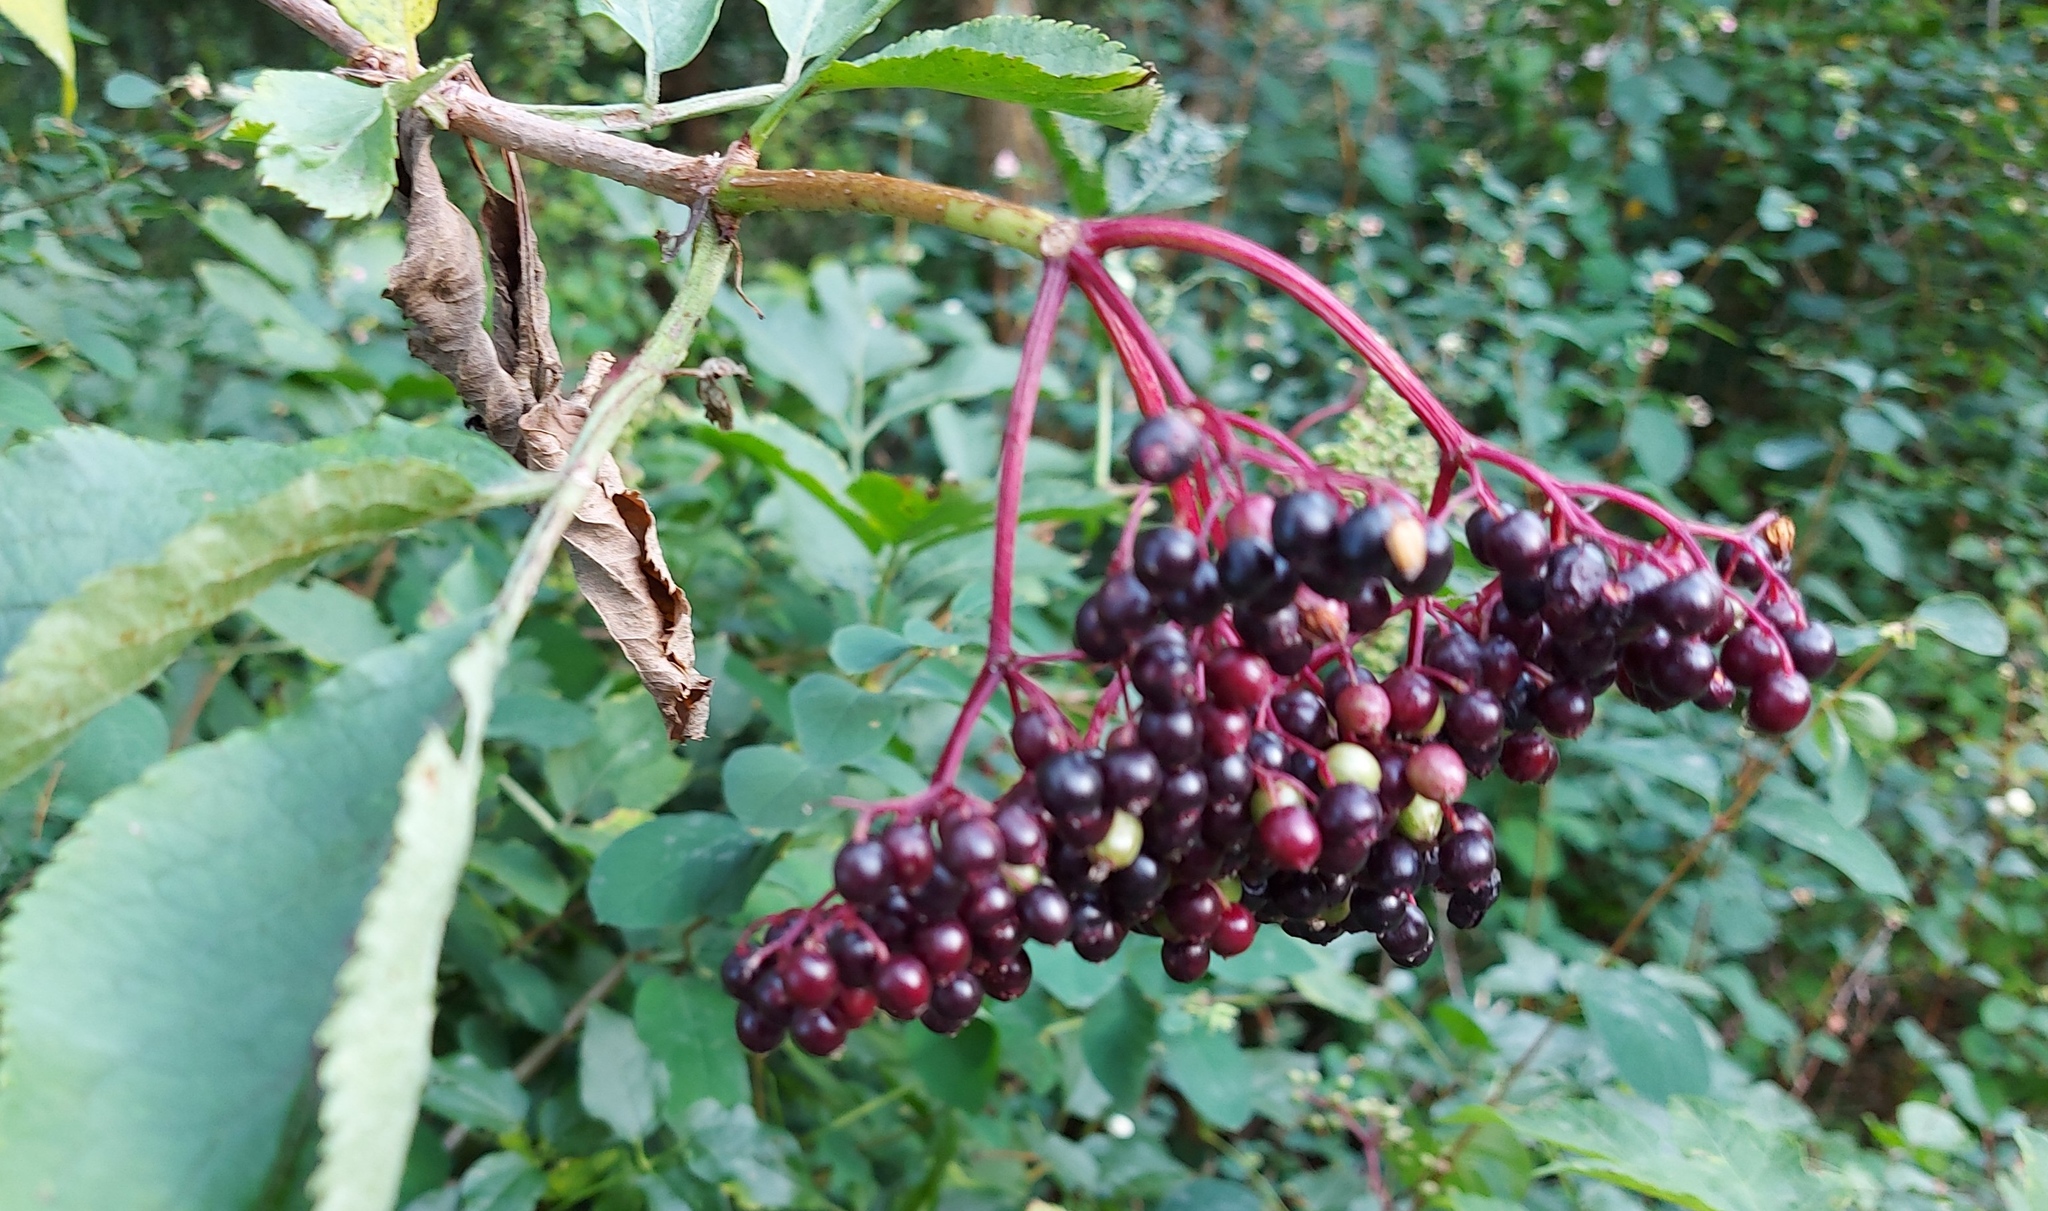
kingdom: Plantae
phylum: Tracheophyta
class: Magnoliopsida
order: Dipsacales
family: Viburnaceae
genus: Sambucus
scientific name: Sambucus nigra
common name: Elder
